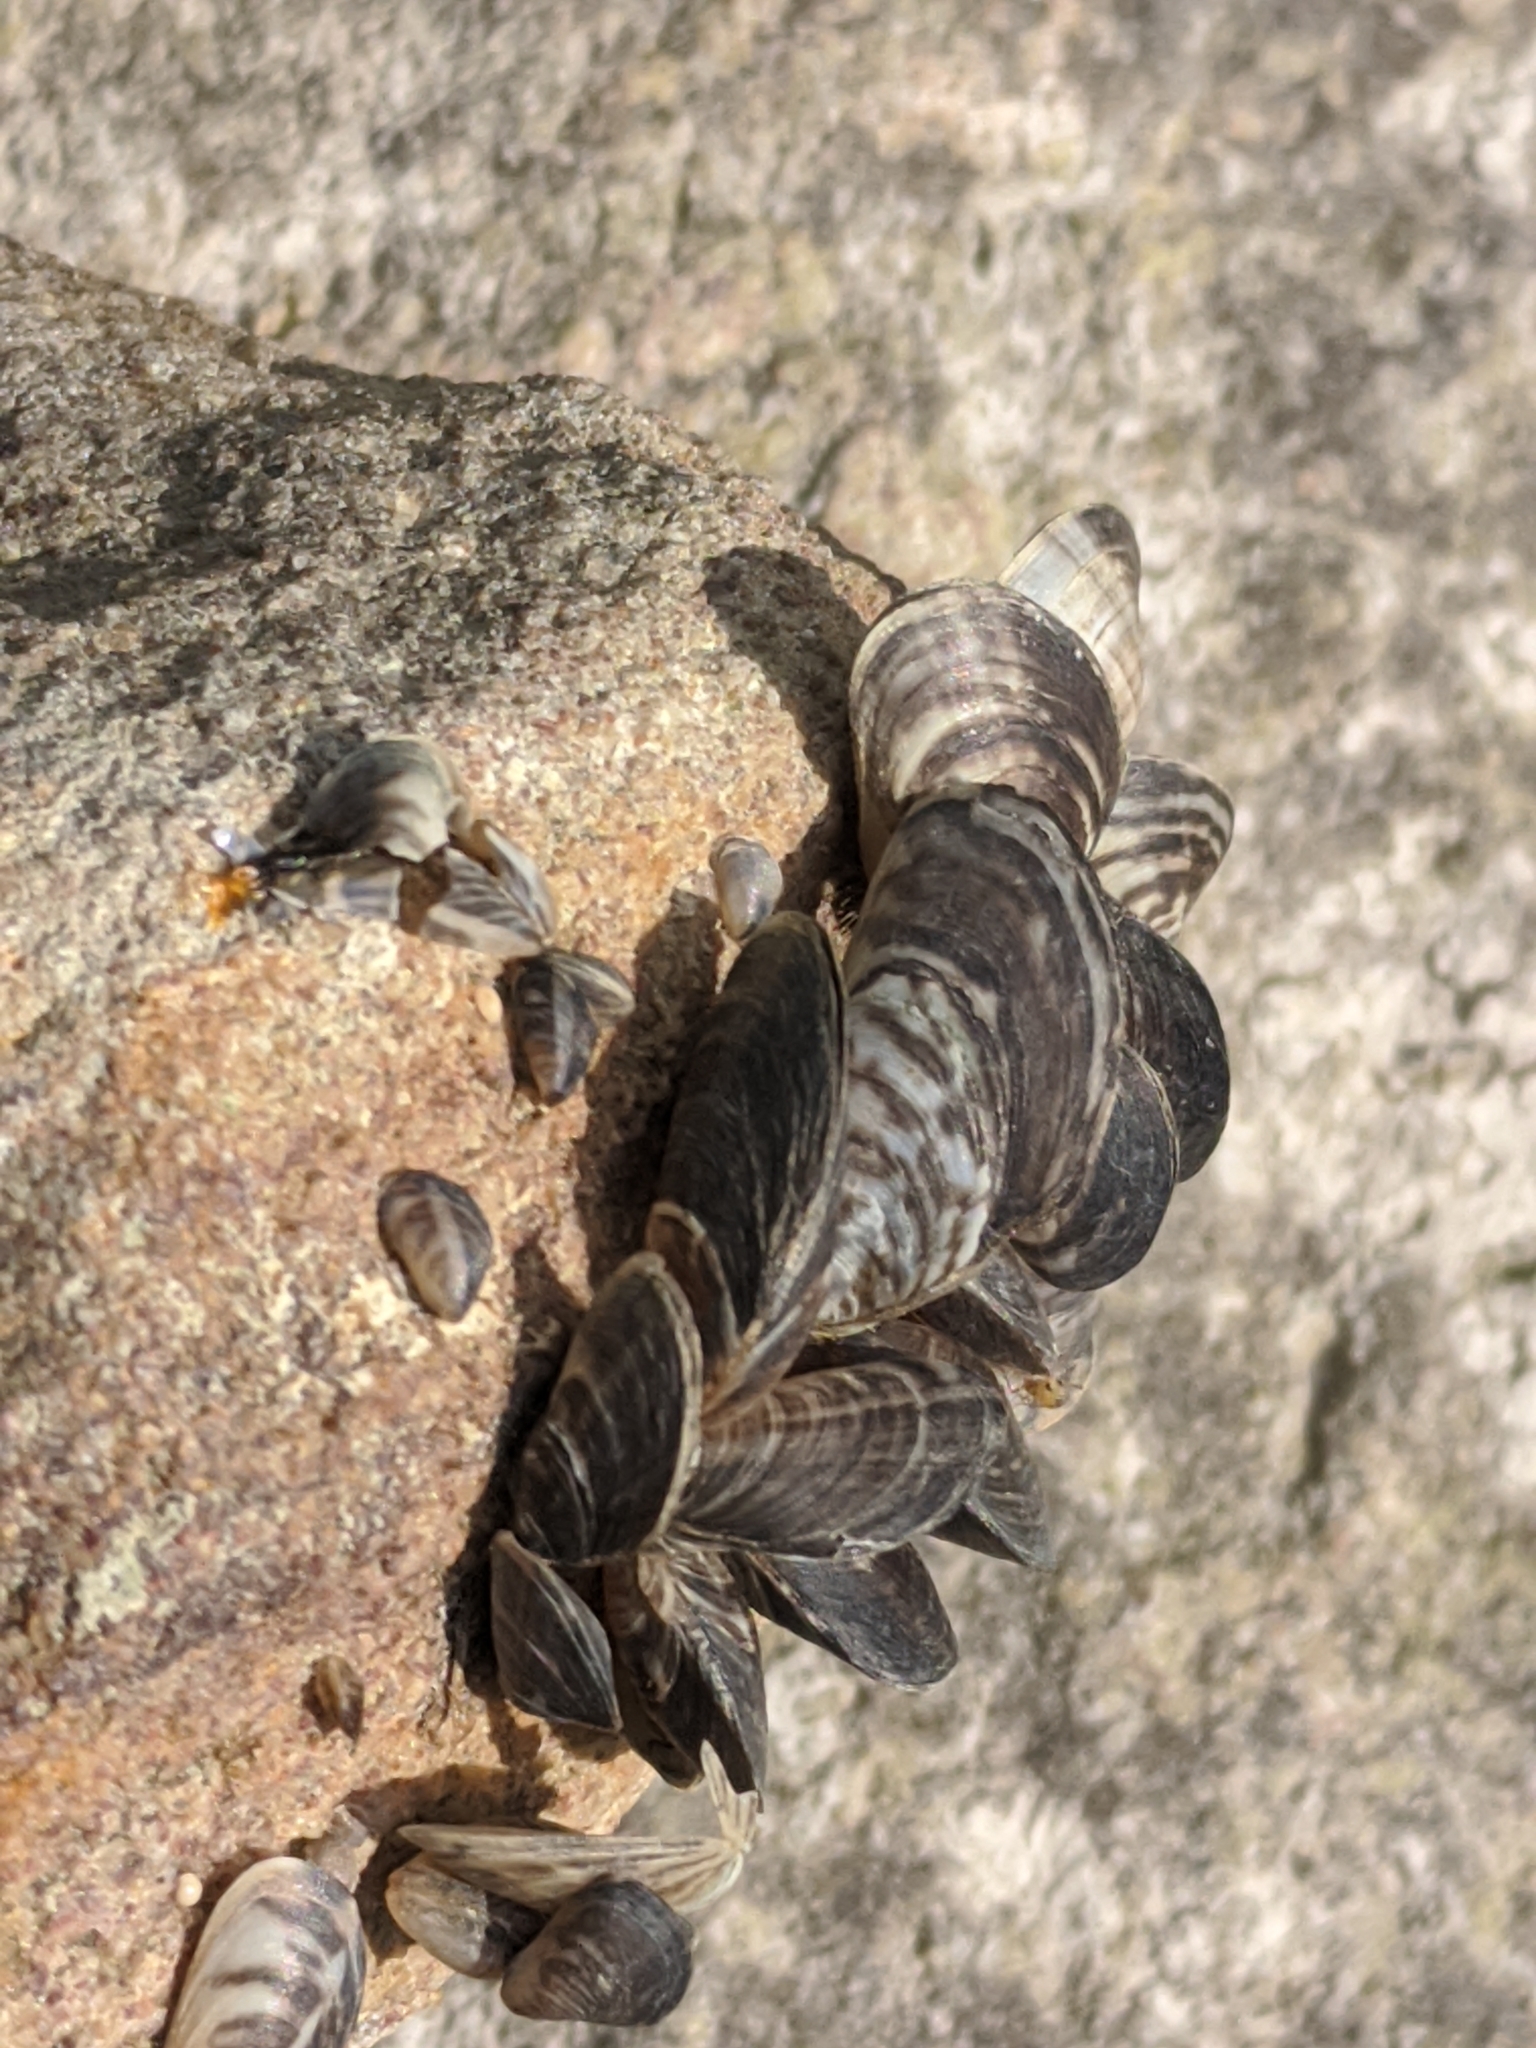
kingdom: Animalia
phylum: Mollusca
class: Bivalvia
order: Myida
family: Dreissenidae
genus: Dreissena
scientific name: Dreissena bugensis
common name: Quagga mussel
